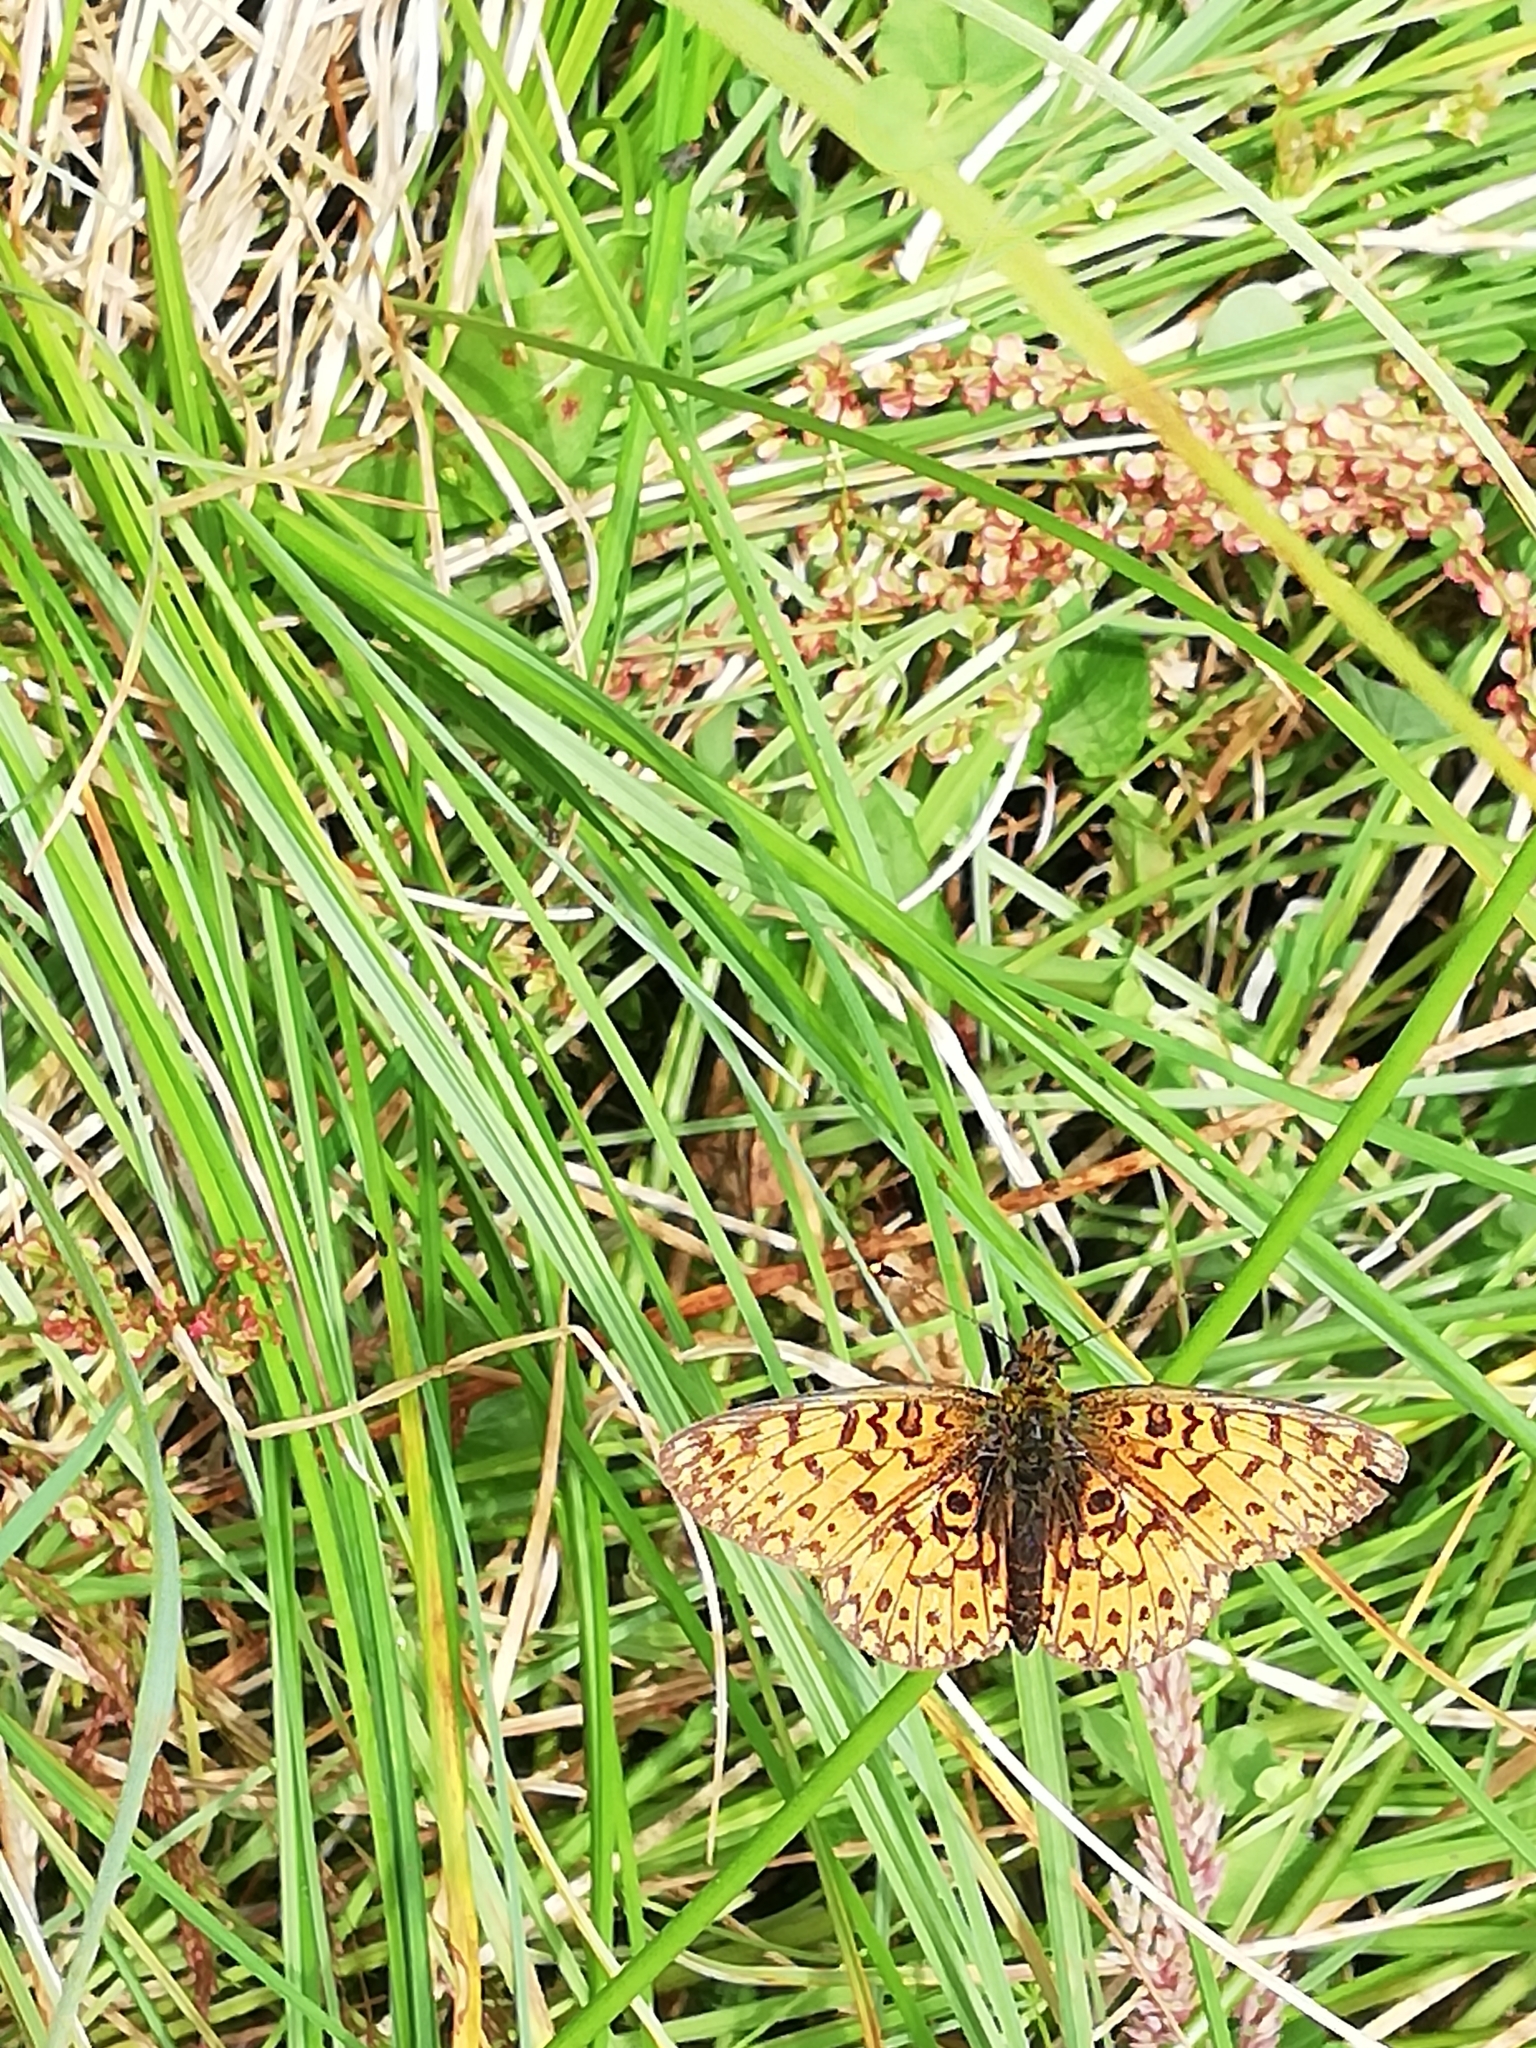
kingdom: Animalia
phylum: Arthropoda
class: Insecta
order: Lepidoptera
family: Nymphalidae
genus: Boloria
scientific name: Boloria selene
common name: Small pearl-bordered fritillary
